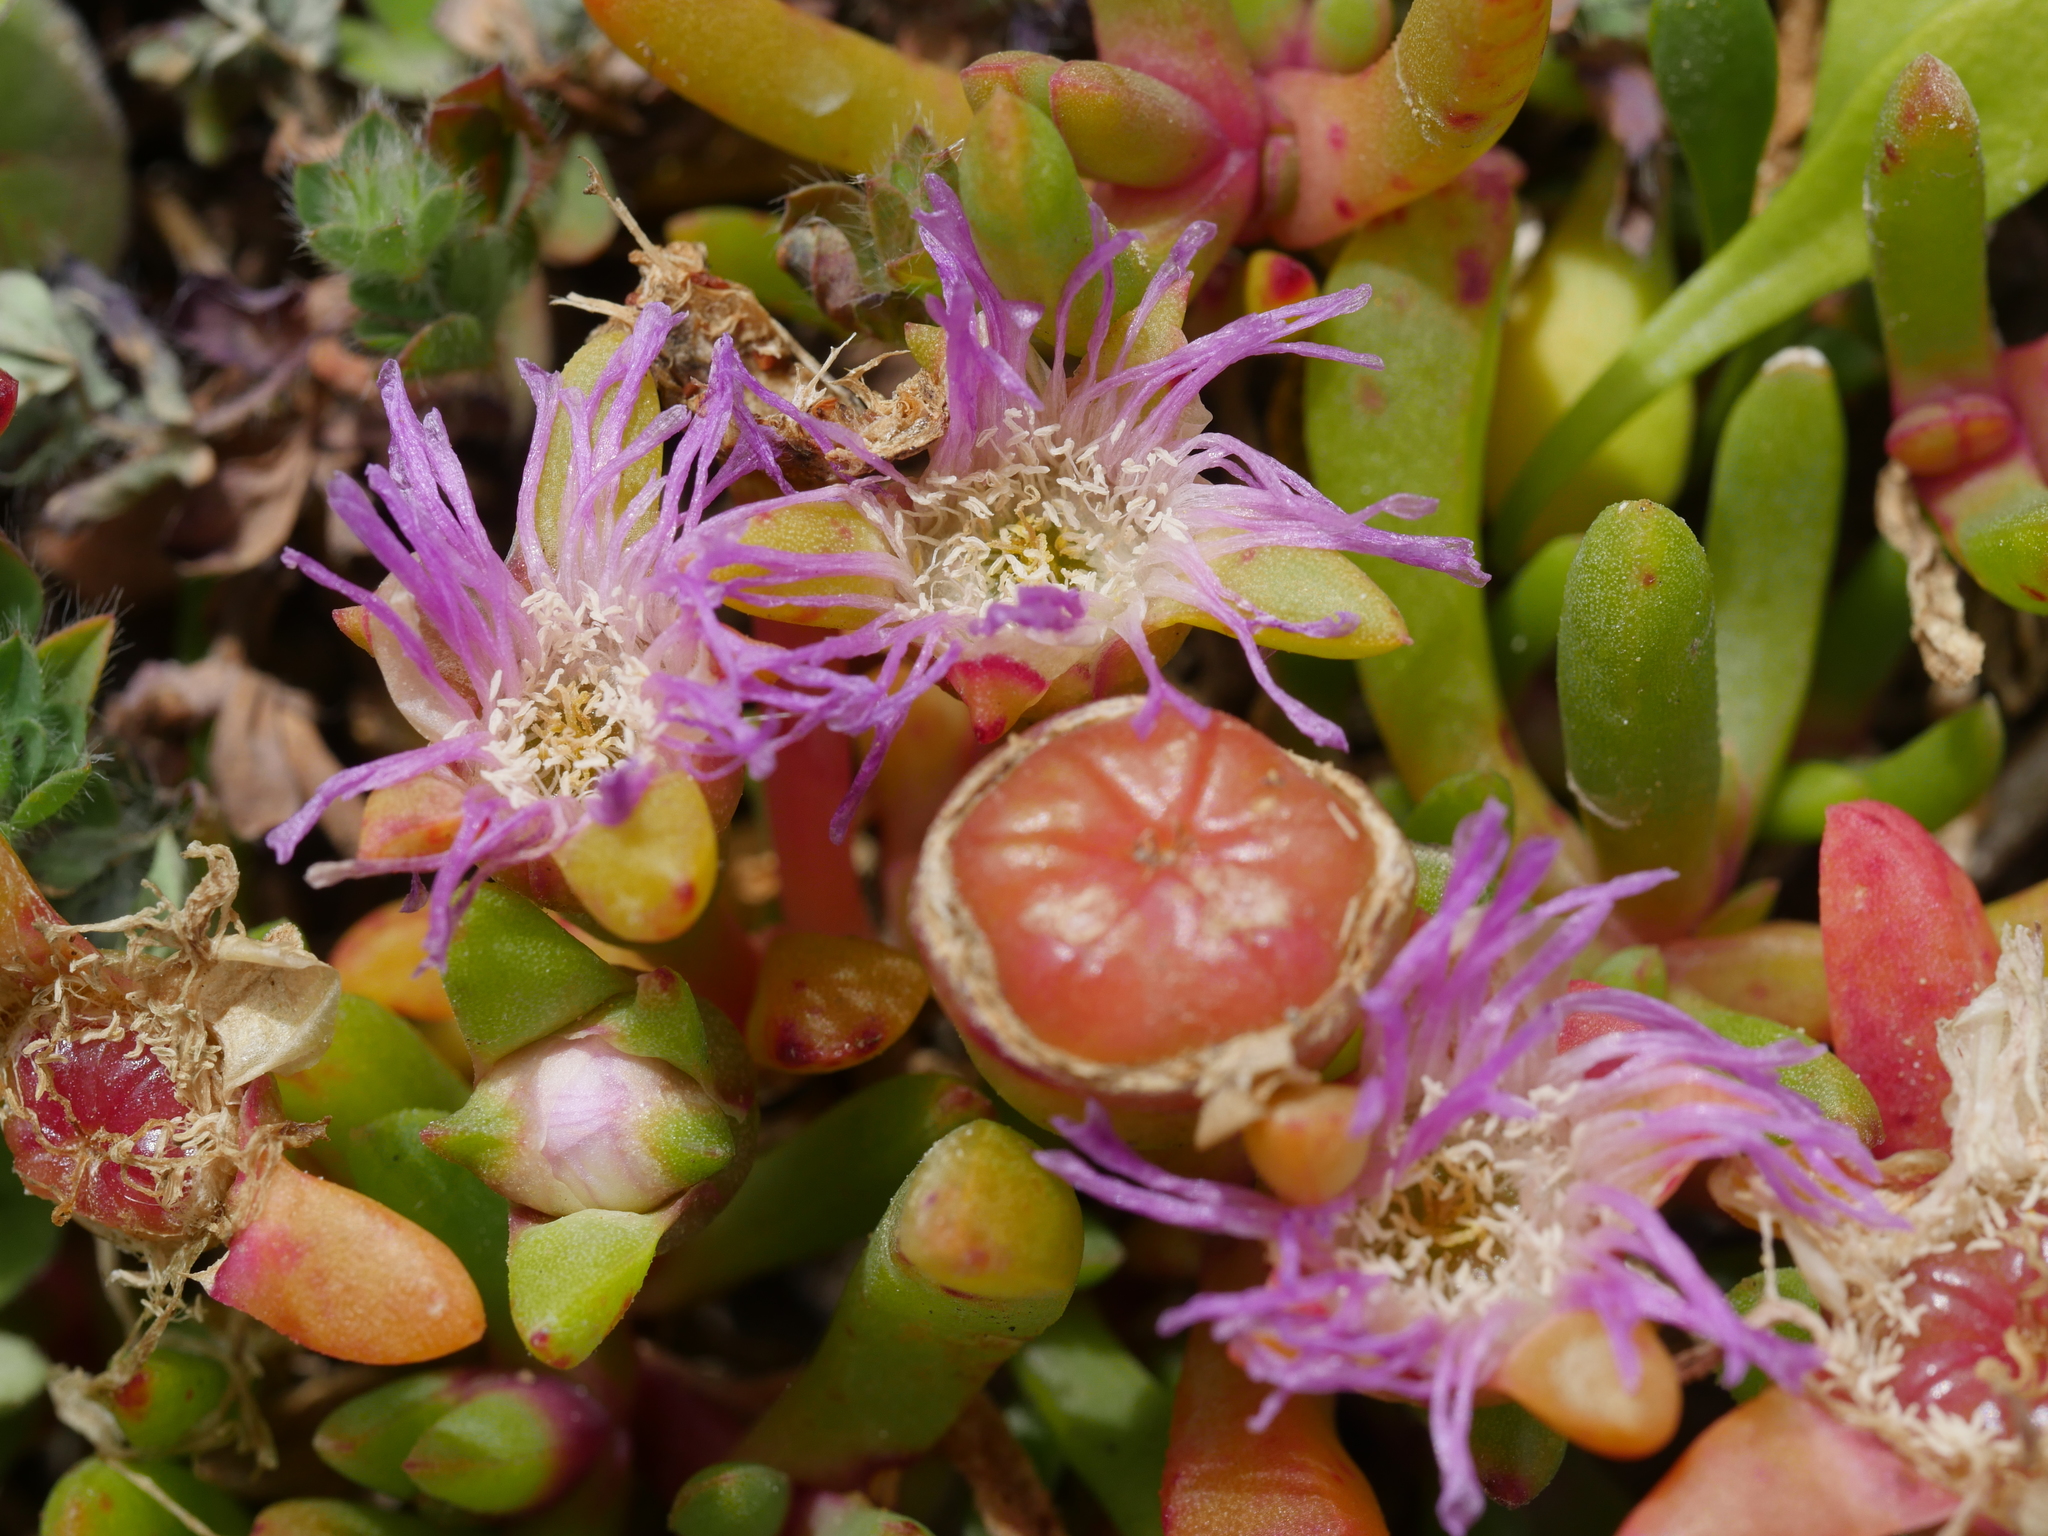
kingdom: Plantae
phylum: Tracheophyta
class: Magnoliopsida
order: Caryophyllales
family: Aizoaceae
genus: Disphyma
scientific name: Disphyma australe
